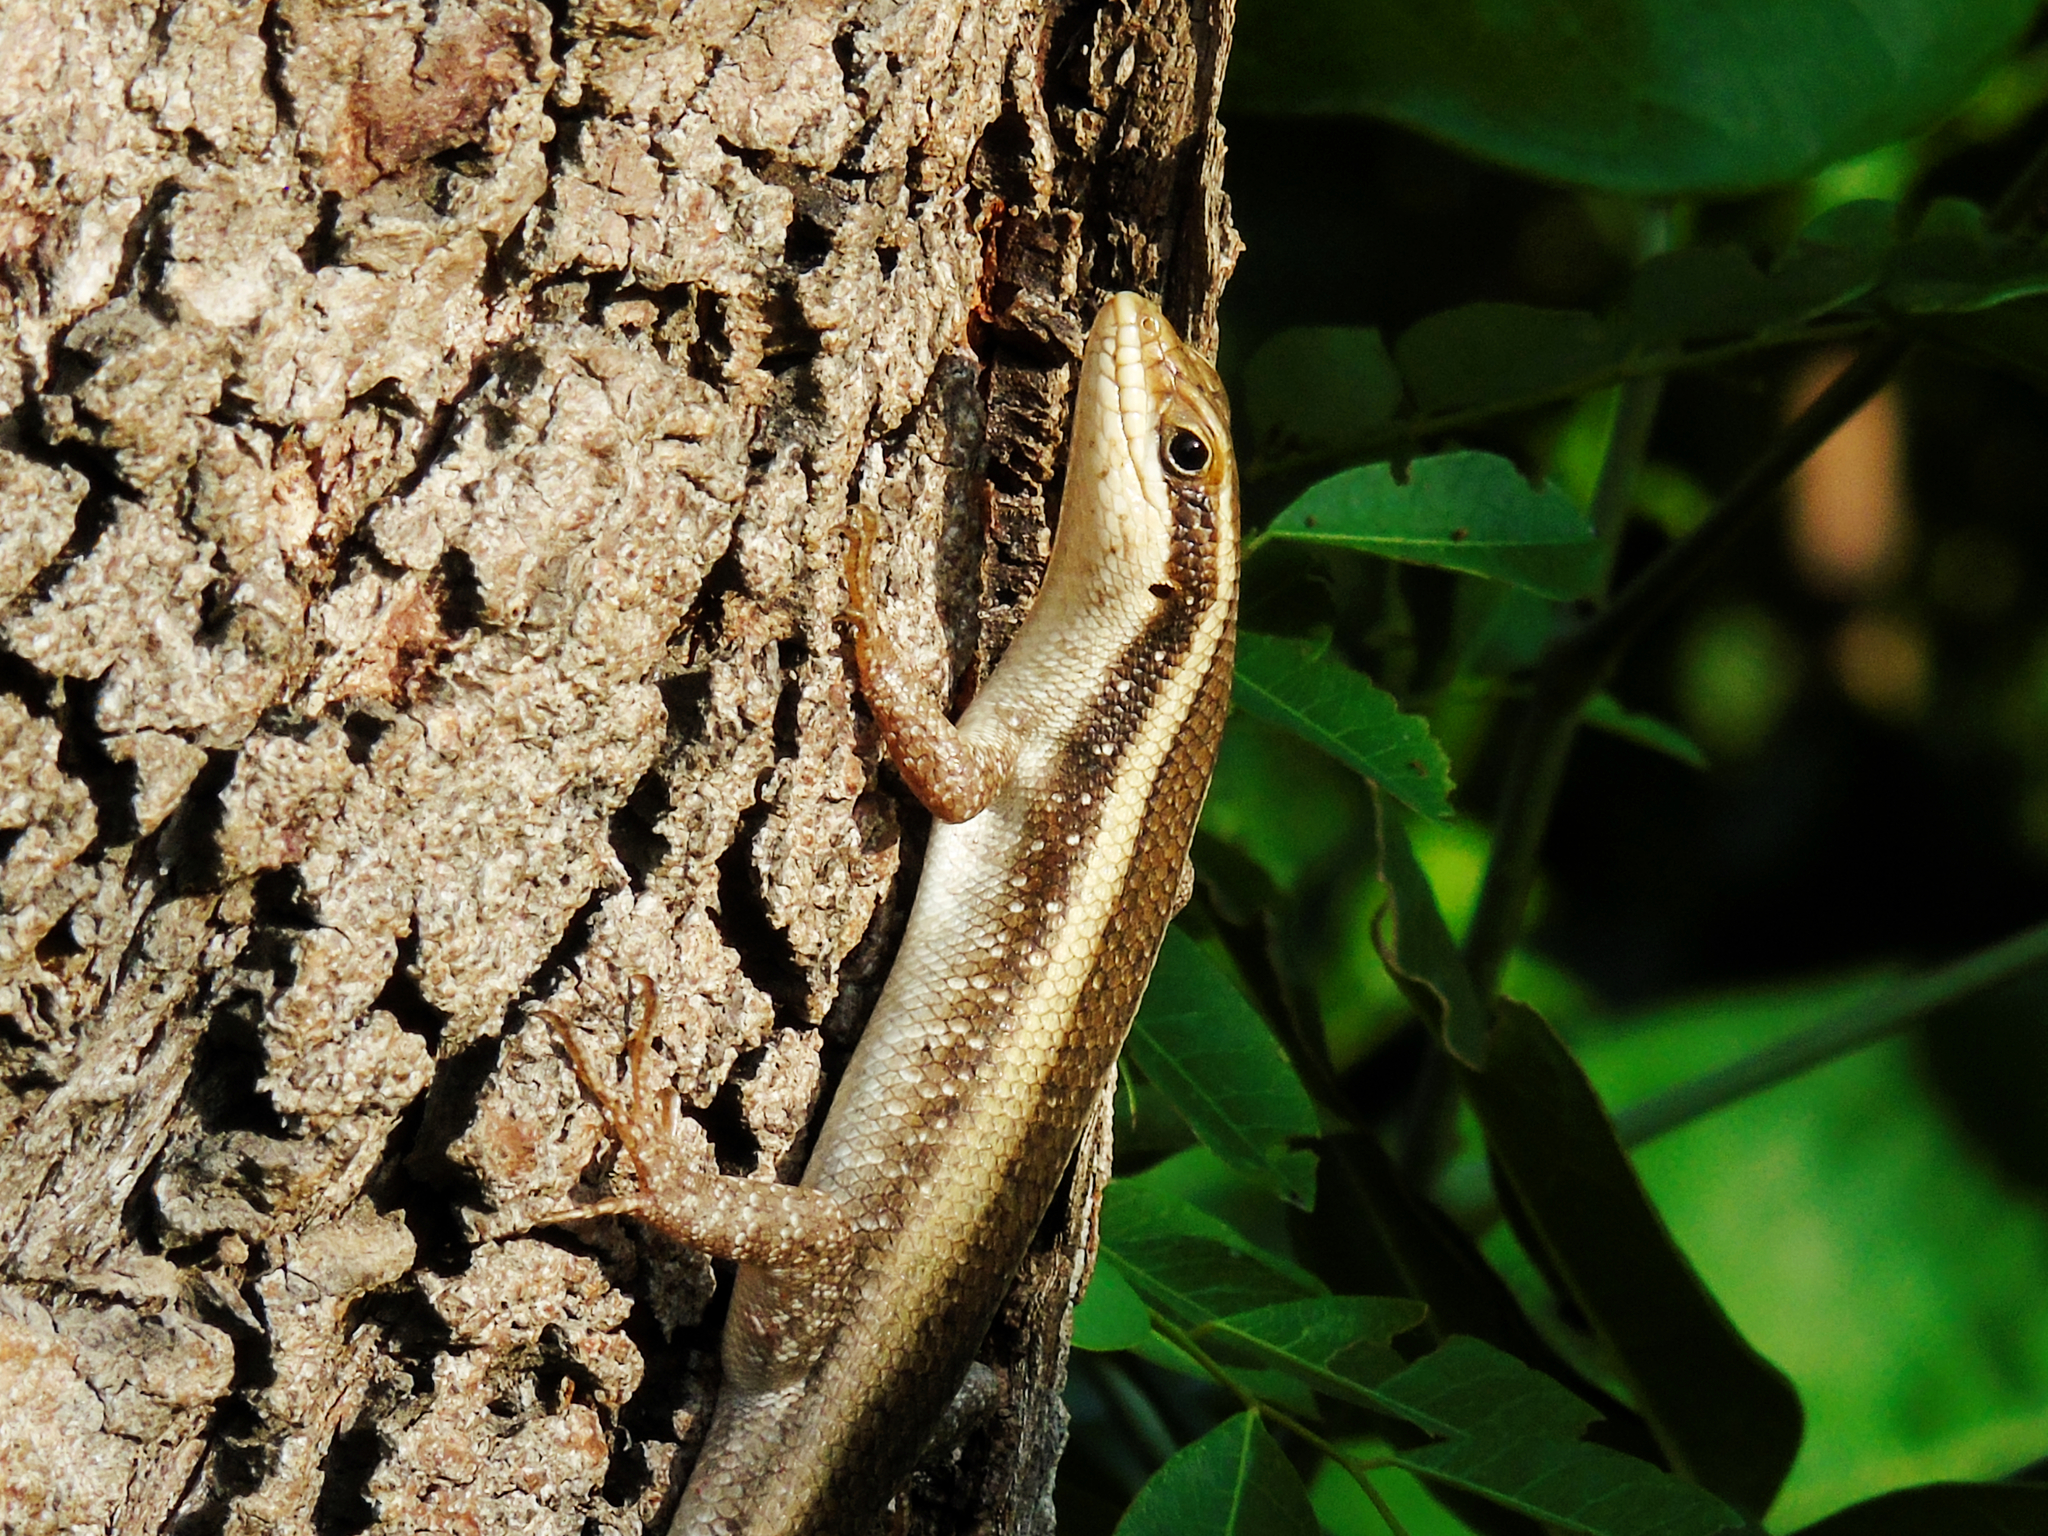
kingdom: Animalia
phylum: Chordata
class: Squamata
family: Scincidae
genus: Trachylepis
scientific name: Trachylepis striata
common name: African striped mabuya
